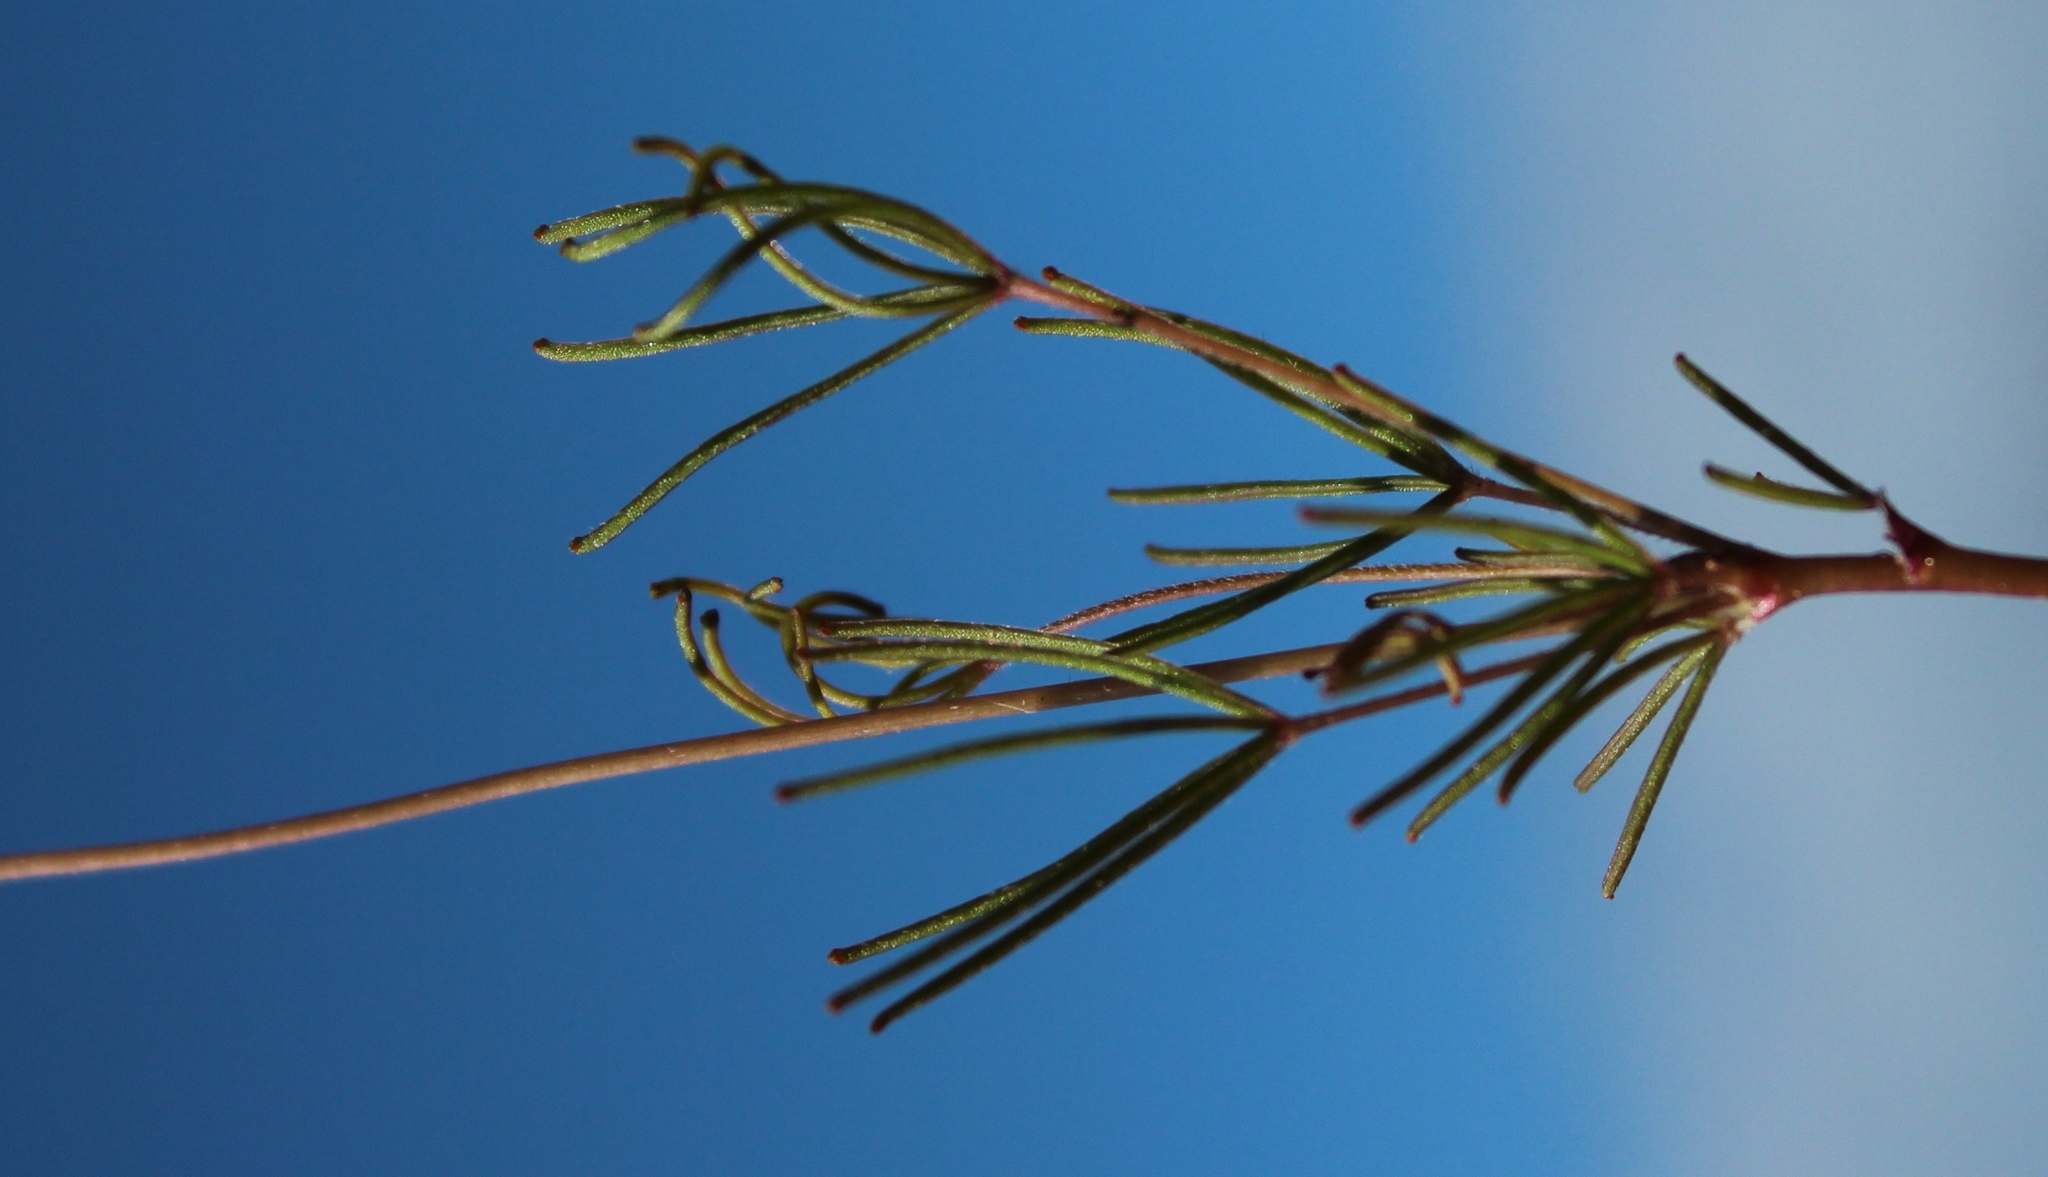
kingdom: Plantae
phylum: Tracheophyta
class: Magnoliopsida
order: Oxalidales
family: Oxalidaceae
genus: Oxalis
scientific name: Oxalis polyphylla
